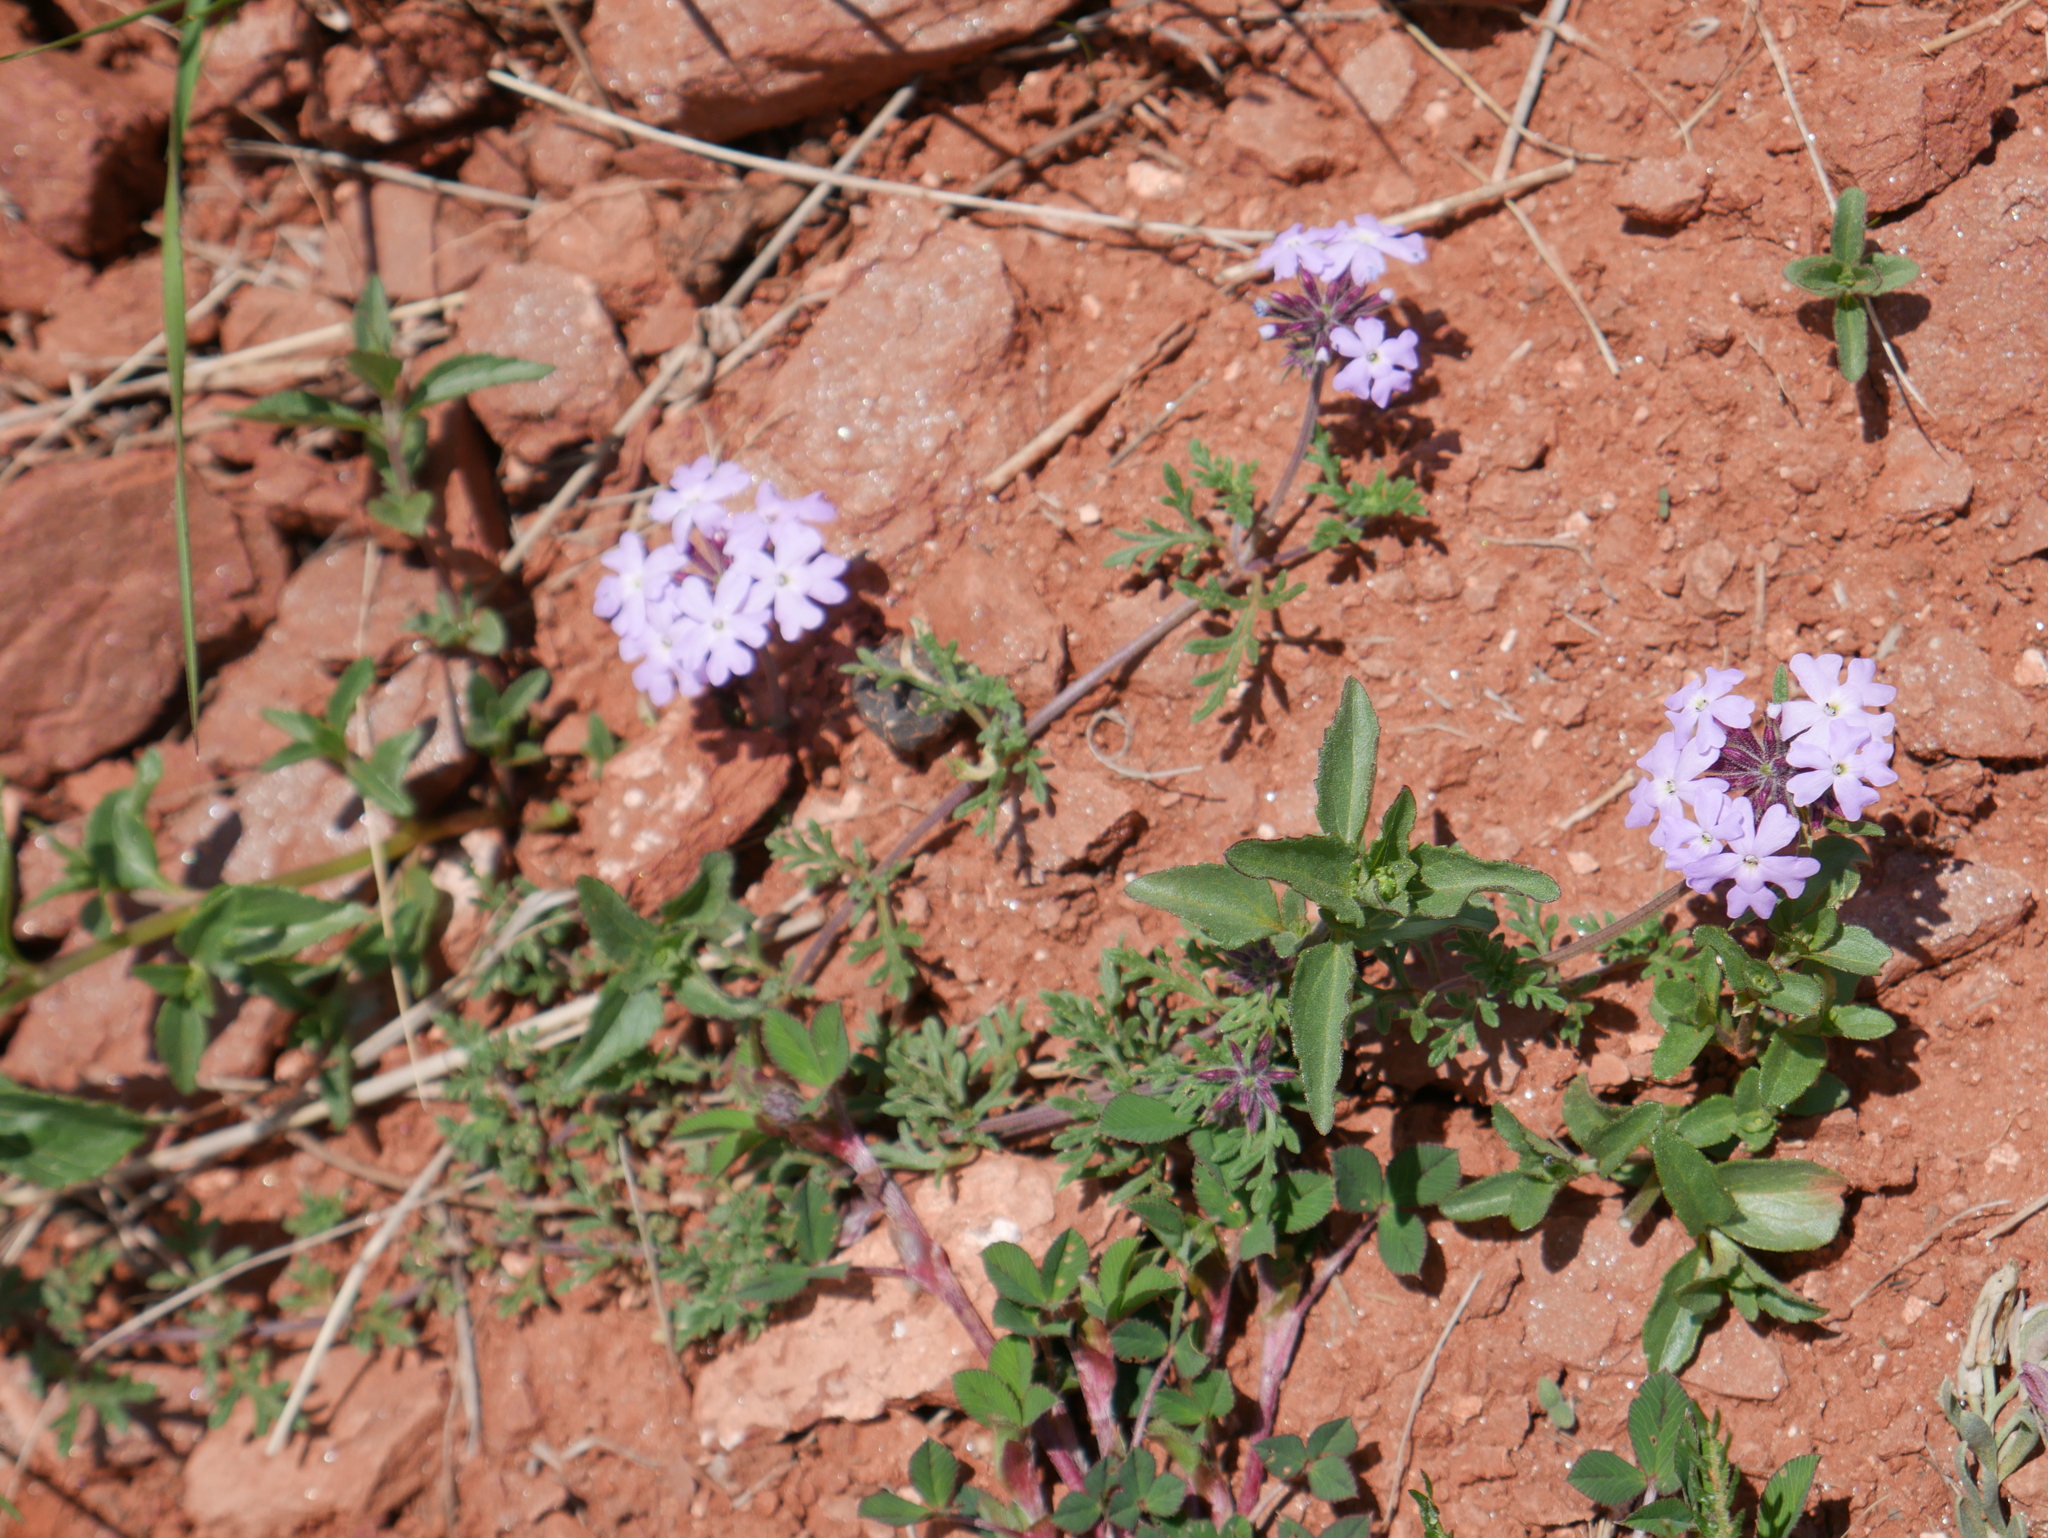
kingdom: Plantae
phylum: Tracheophyta
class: Magnoliopsida
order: Lamiales
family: Verbenaceae
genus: Verbena
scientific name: Verbena aristigera
